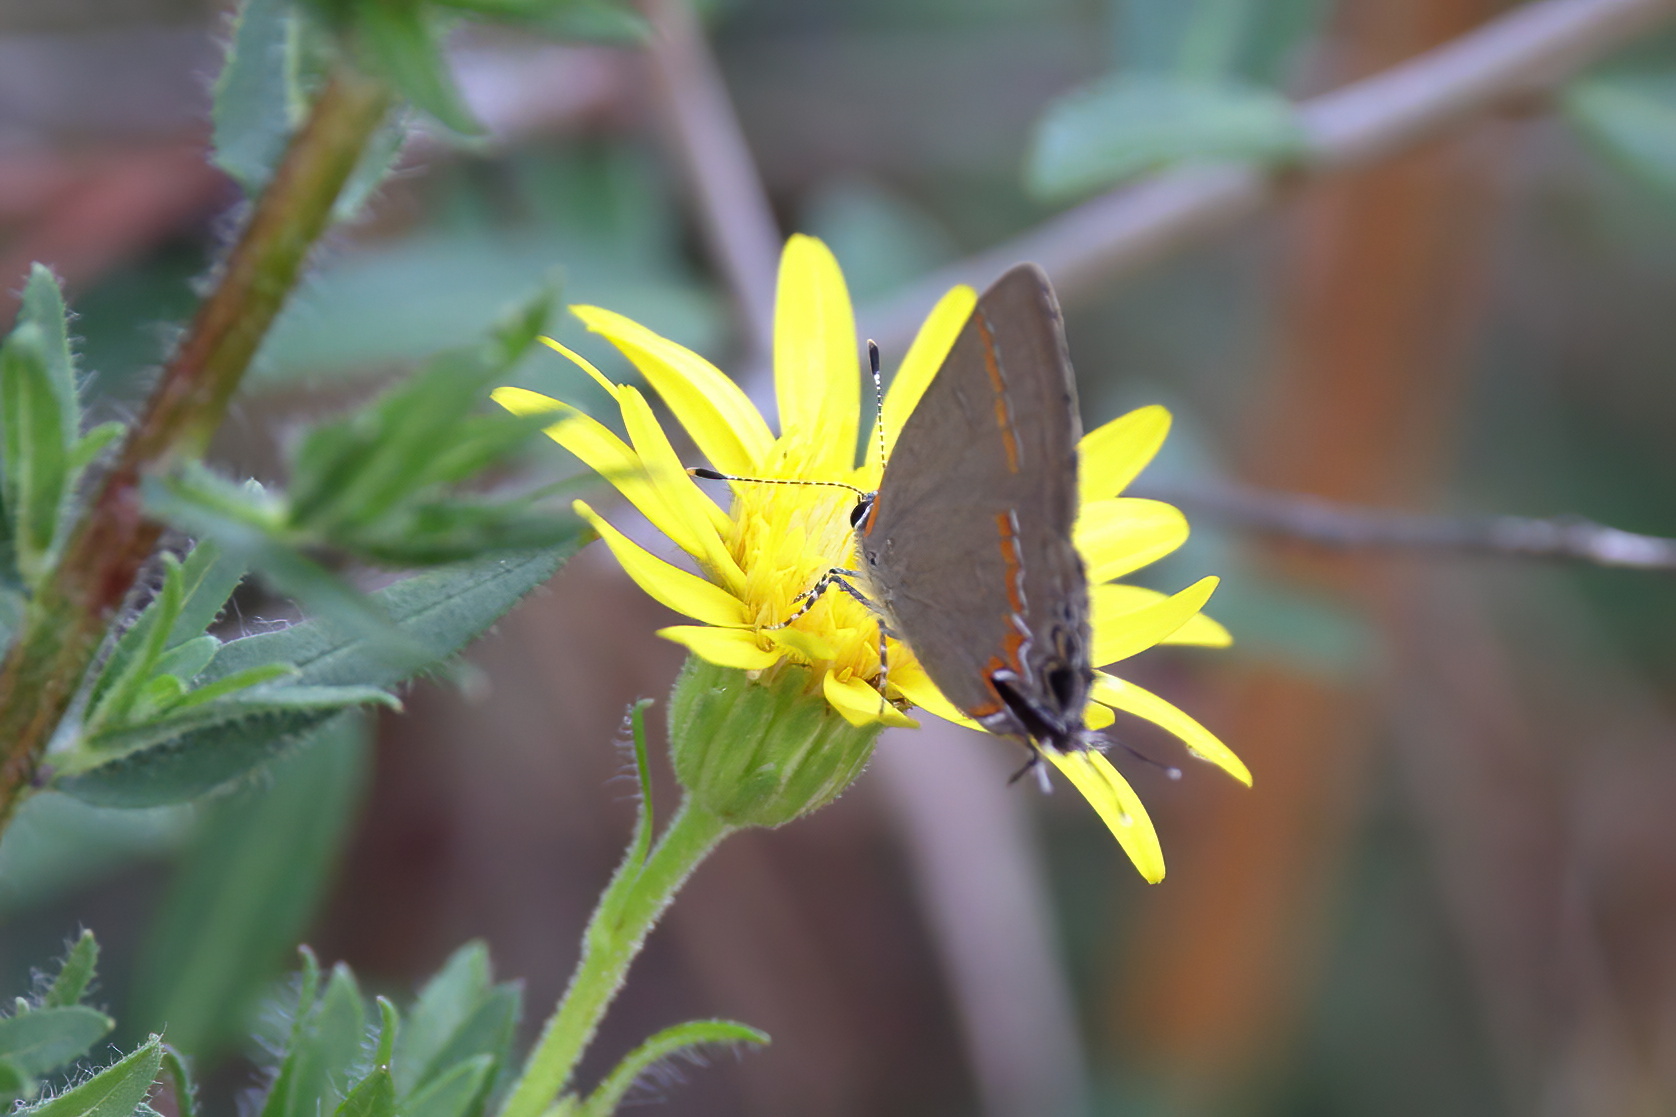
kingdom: Animalia
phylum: Arthropoda
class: Insecta
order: Lepidoptera
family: Lycaenidae
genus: Calycopis
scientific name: Calycopis cecrops
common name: Red-banded hairstreak
